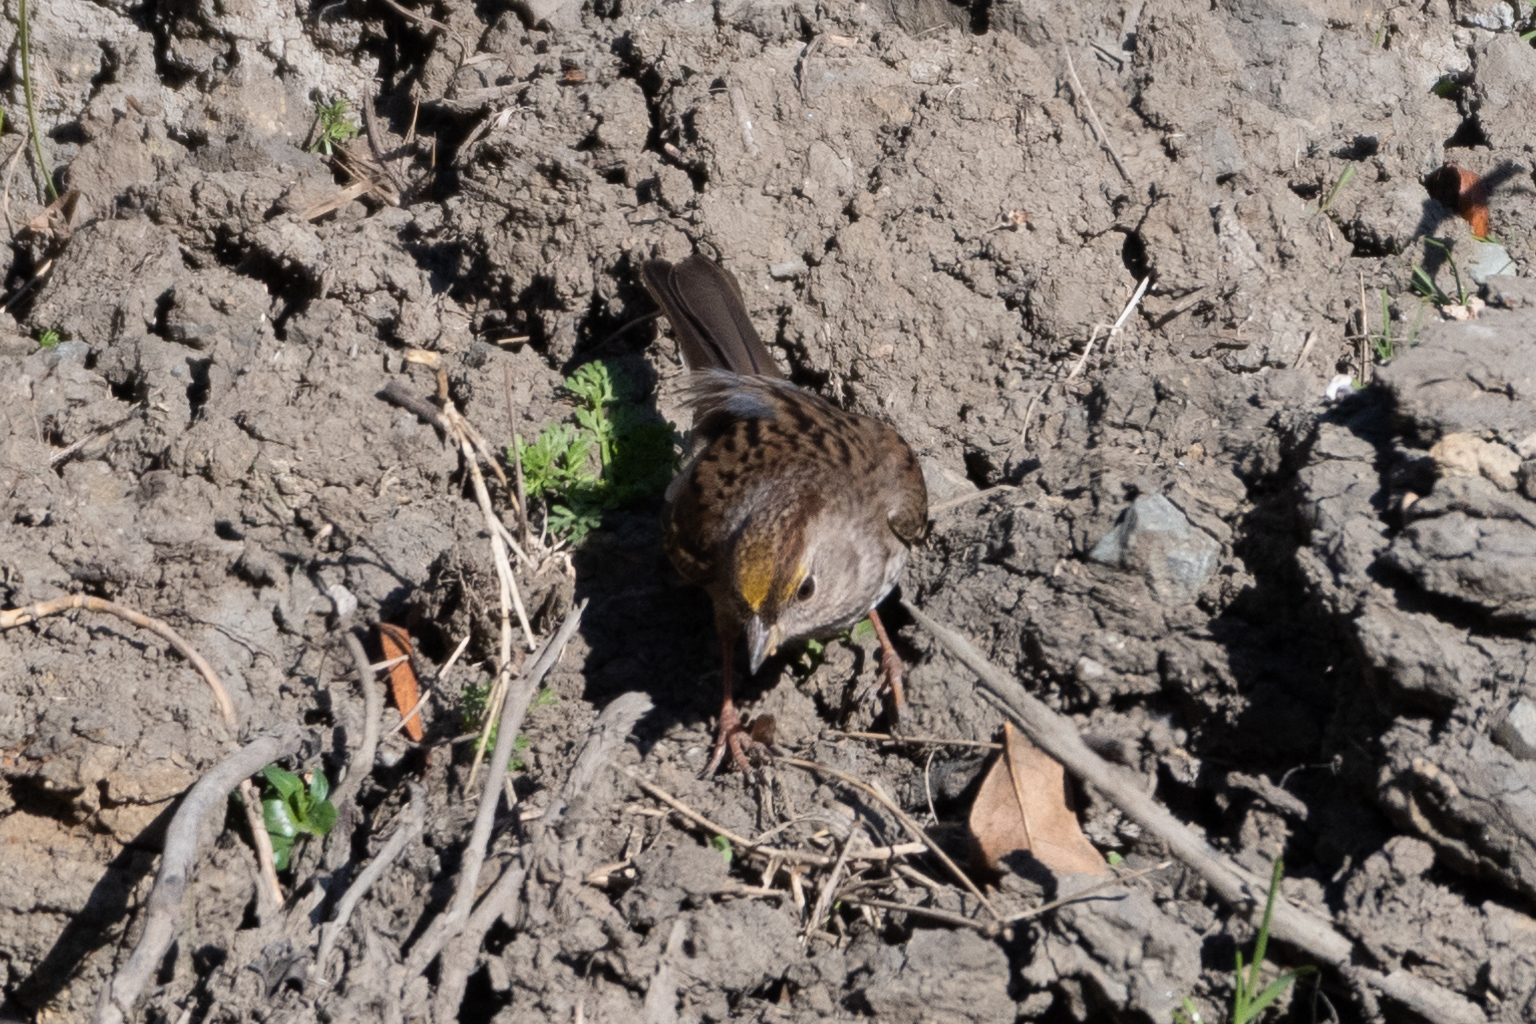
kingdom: Animalia
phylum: Chordata
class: Aves
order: Passeriformes
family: Passerellidae
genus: Zonotrichia
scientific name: Zonotrichia atricapilla
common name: Golden-crowned sparrow
